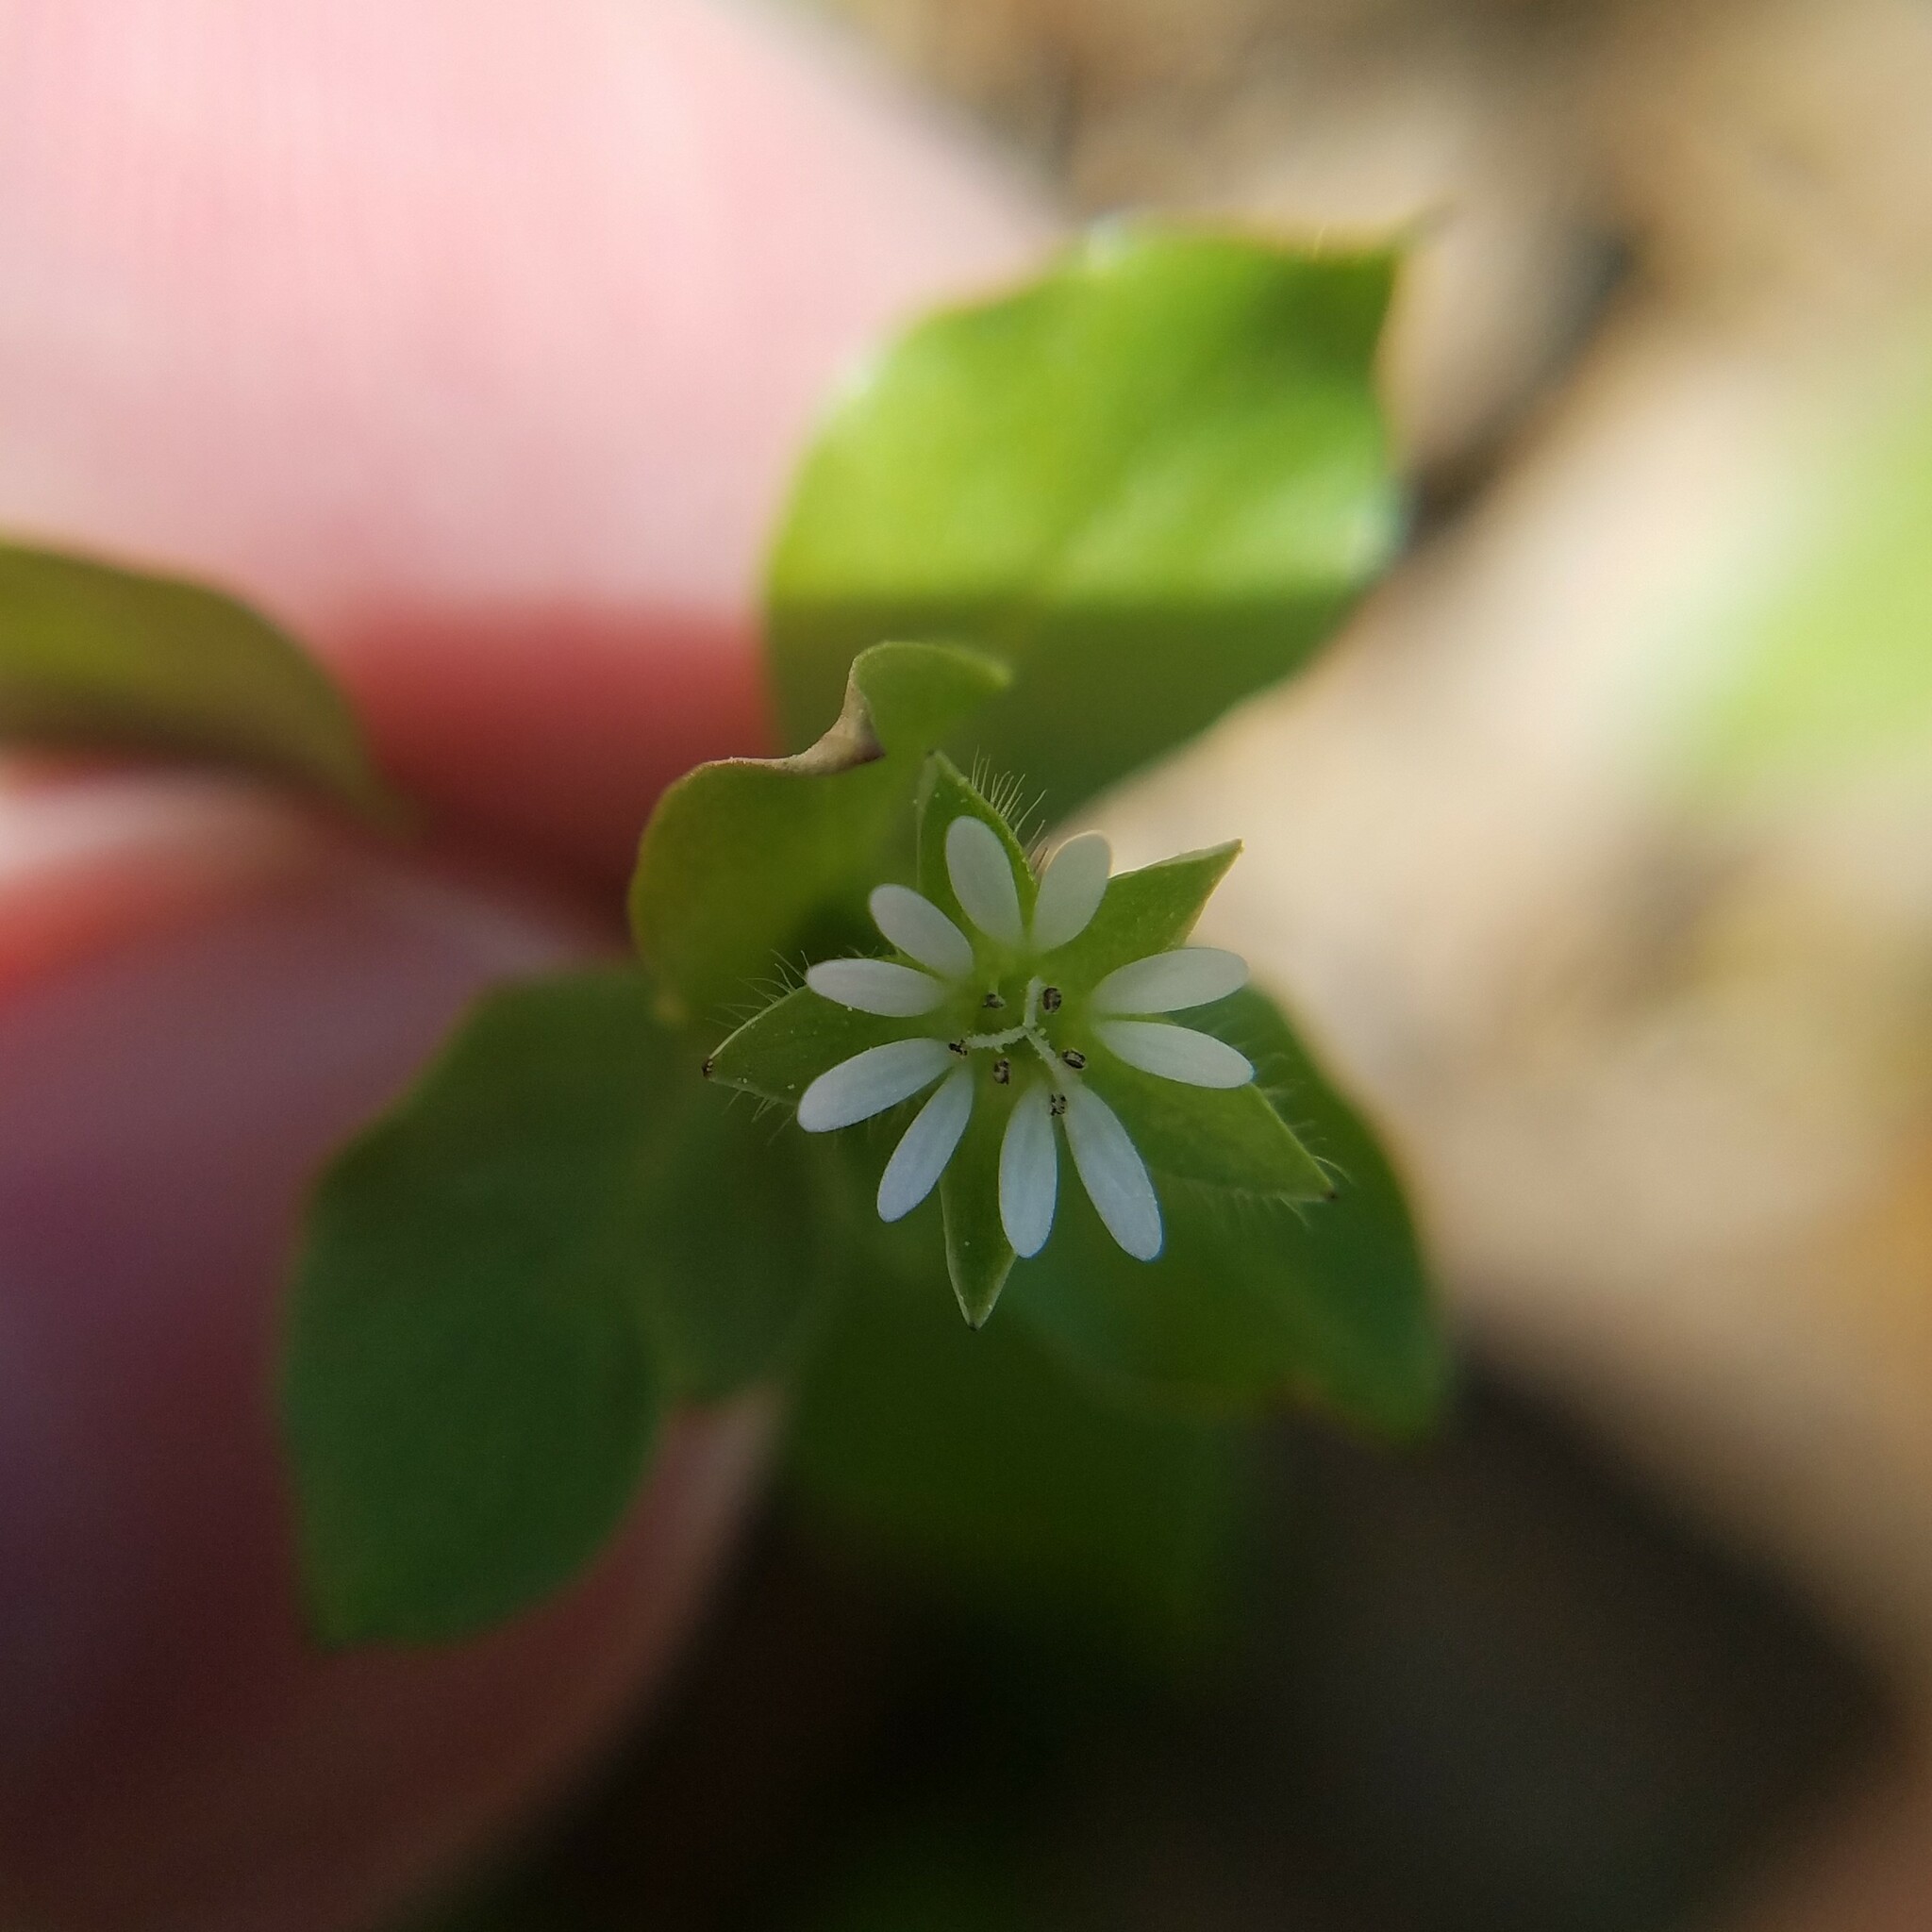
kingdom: Plantae
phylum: Tracheophyta
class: Magnoliopsida
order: Caryophyllales
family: Caryophyllaceae
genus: Stellaria
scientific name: Stellaria media
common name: Common chickweed
